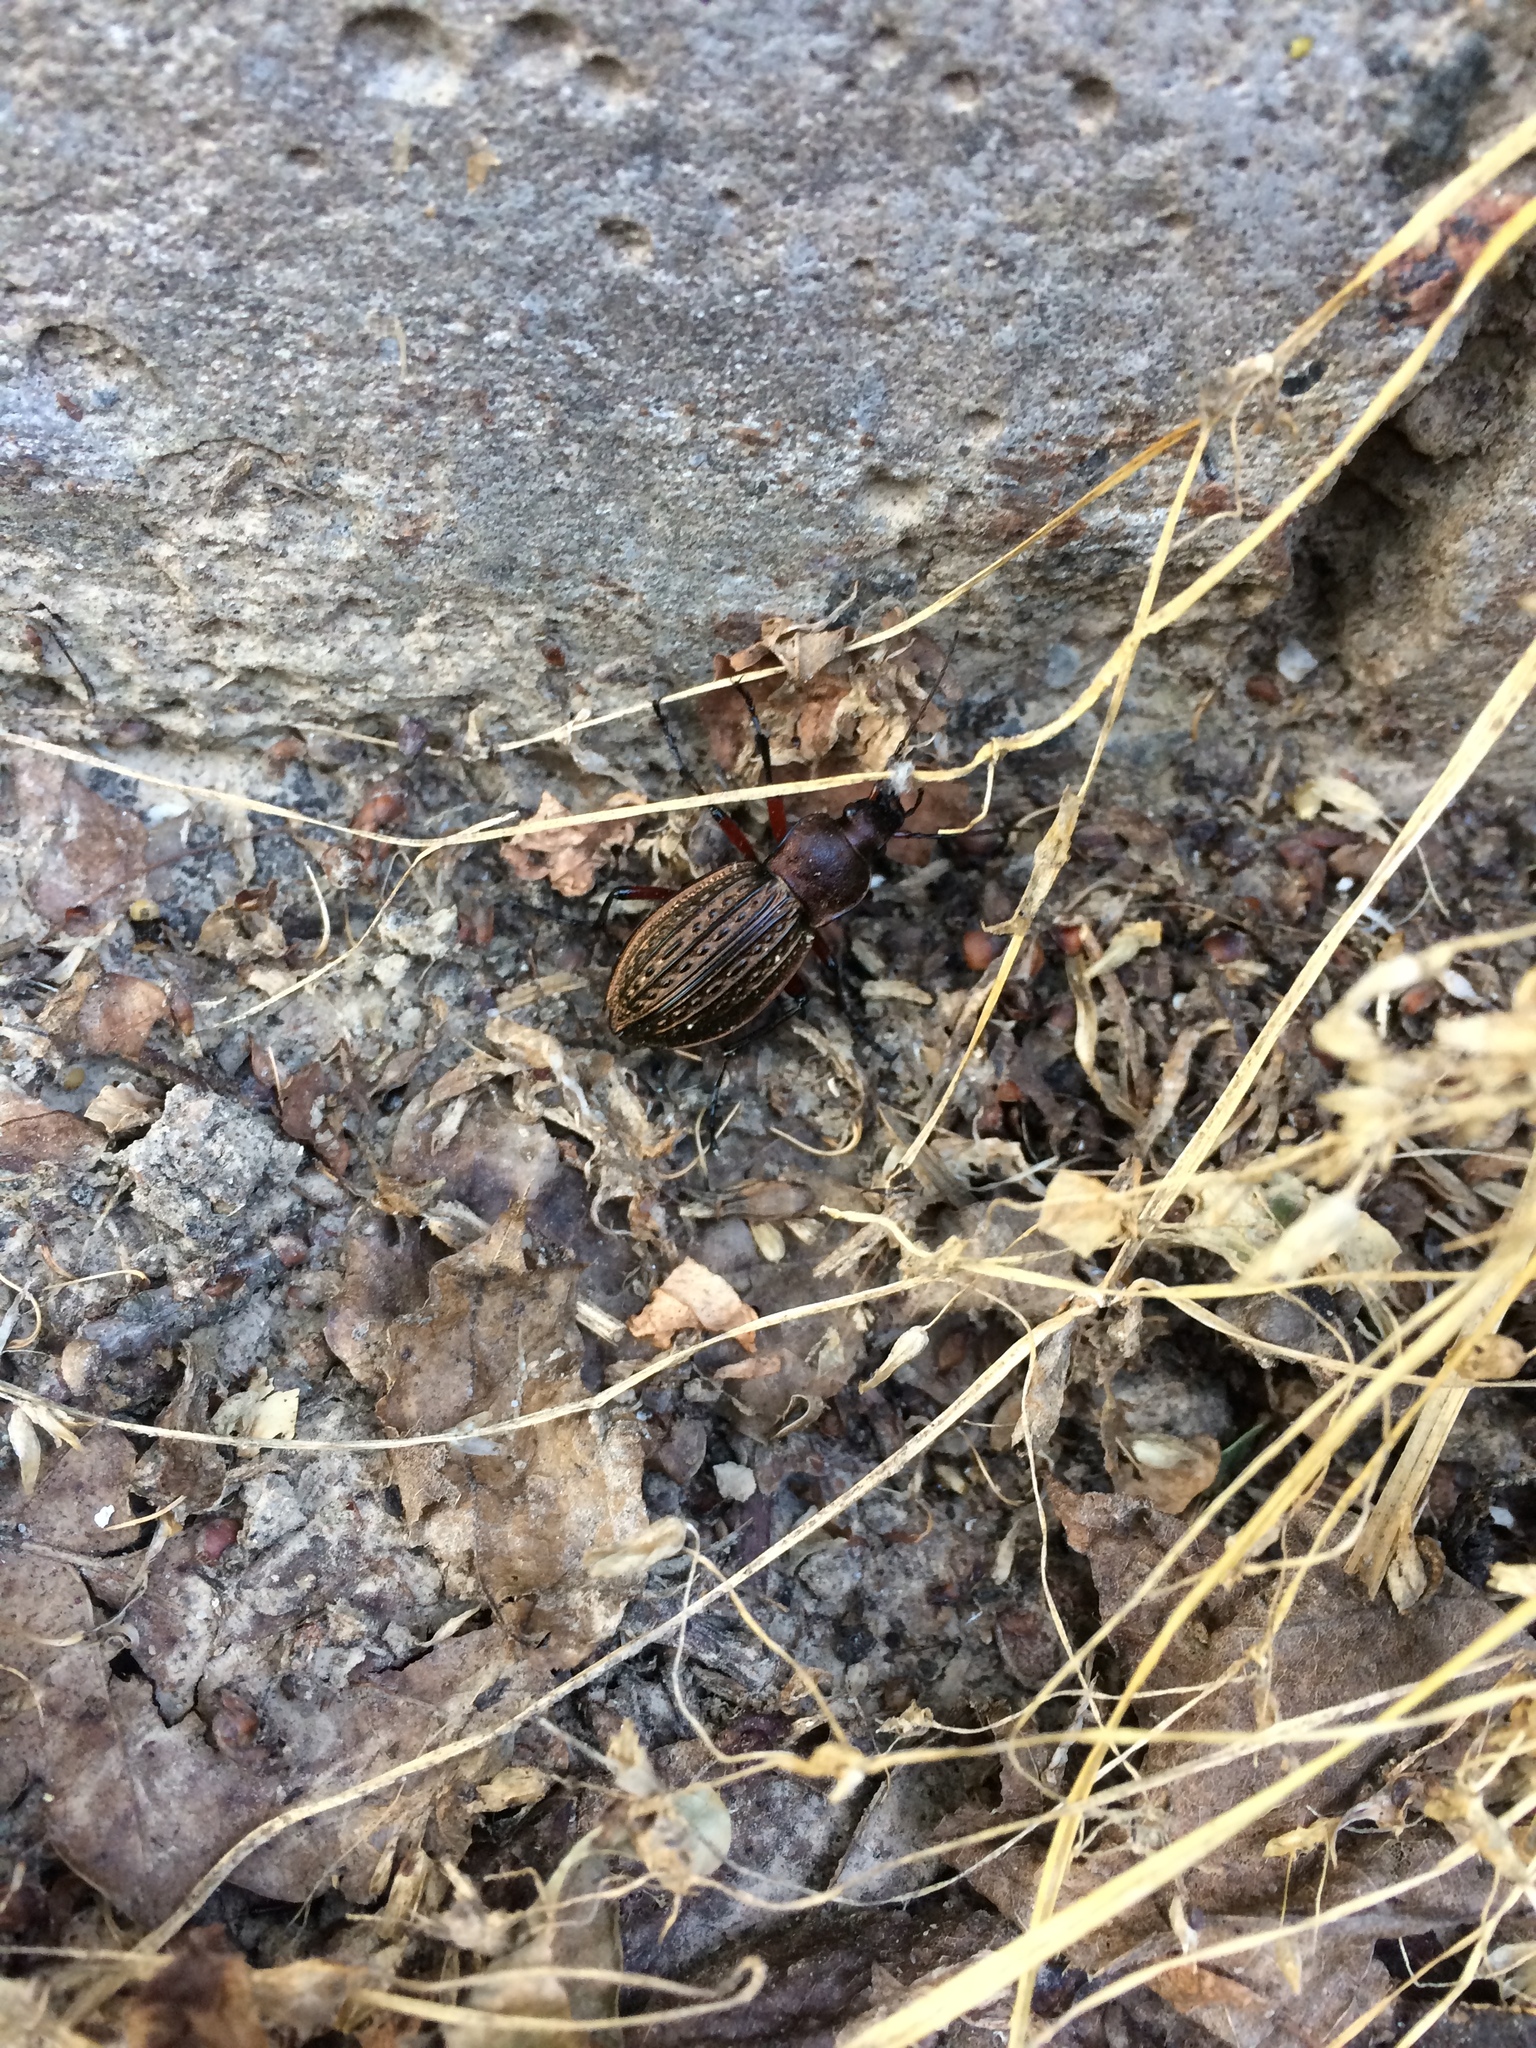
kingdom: Animalia
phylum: Arthropoda
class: Insecta
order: Coleoptera
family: Carabidae
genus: Carabus
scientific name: Carabus cancellatus
